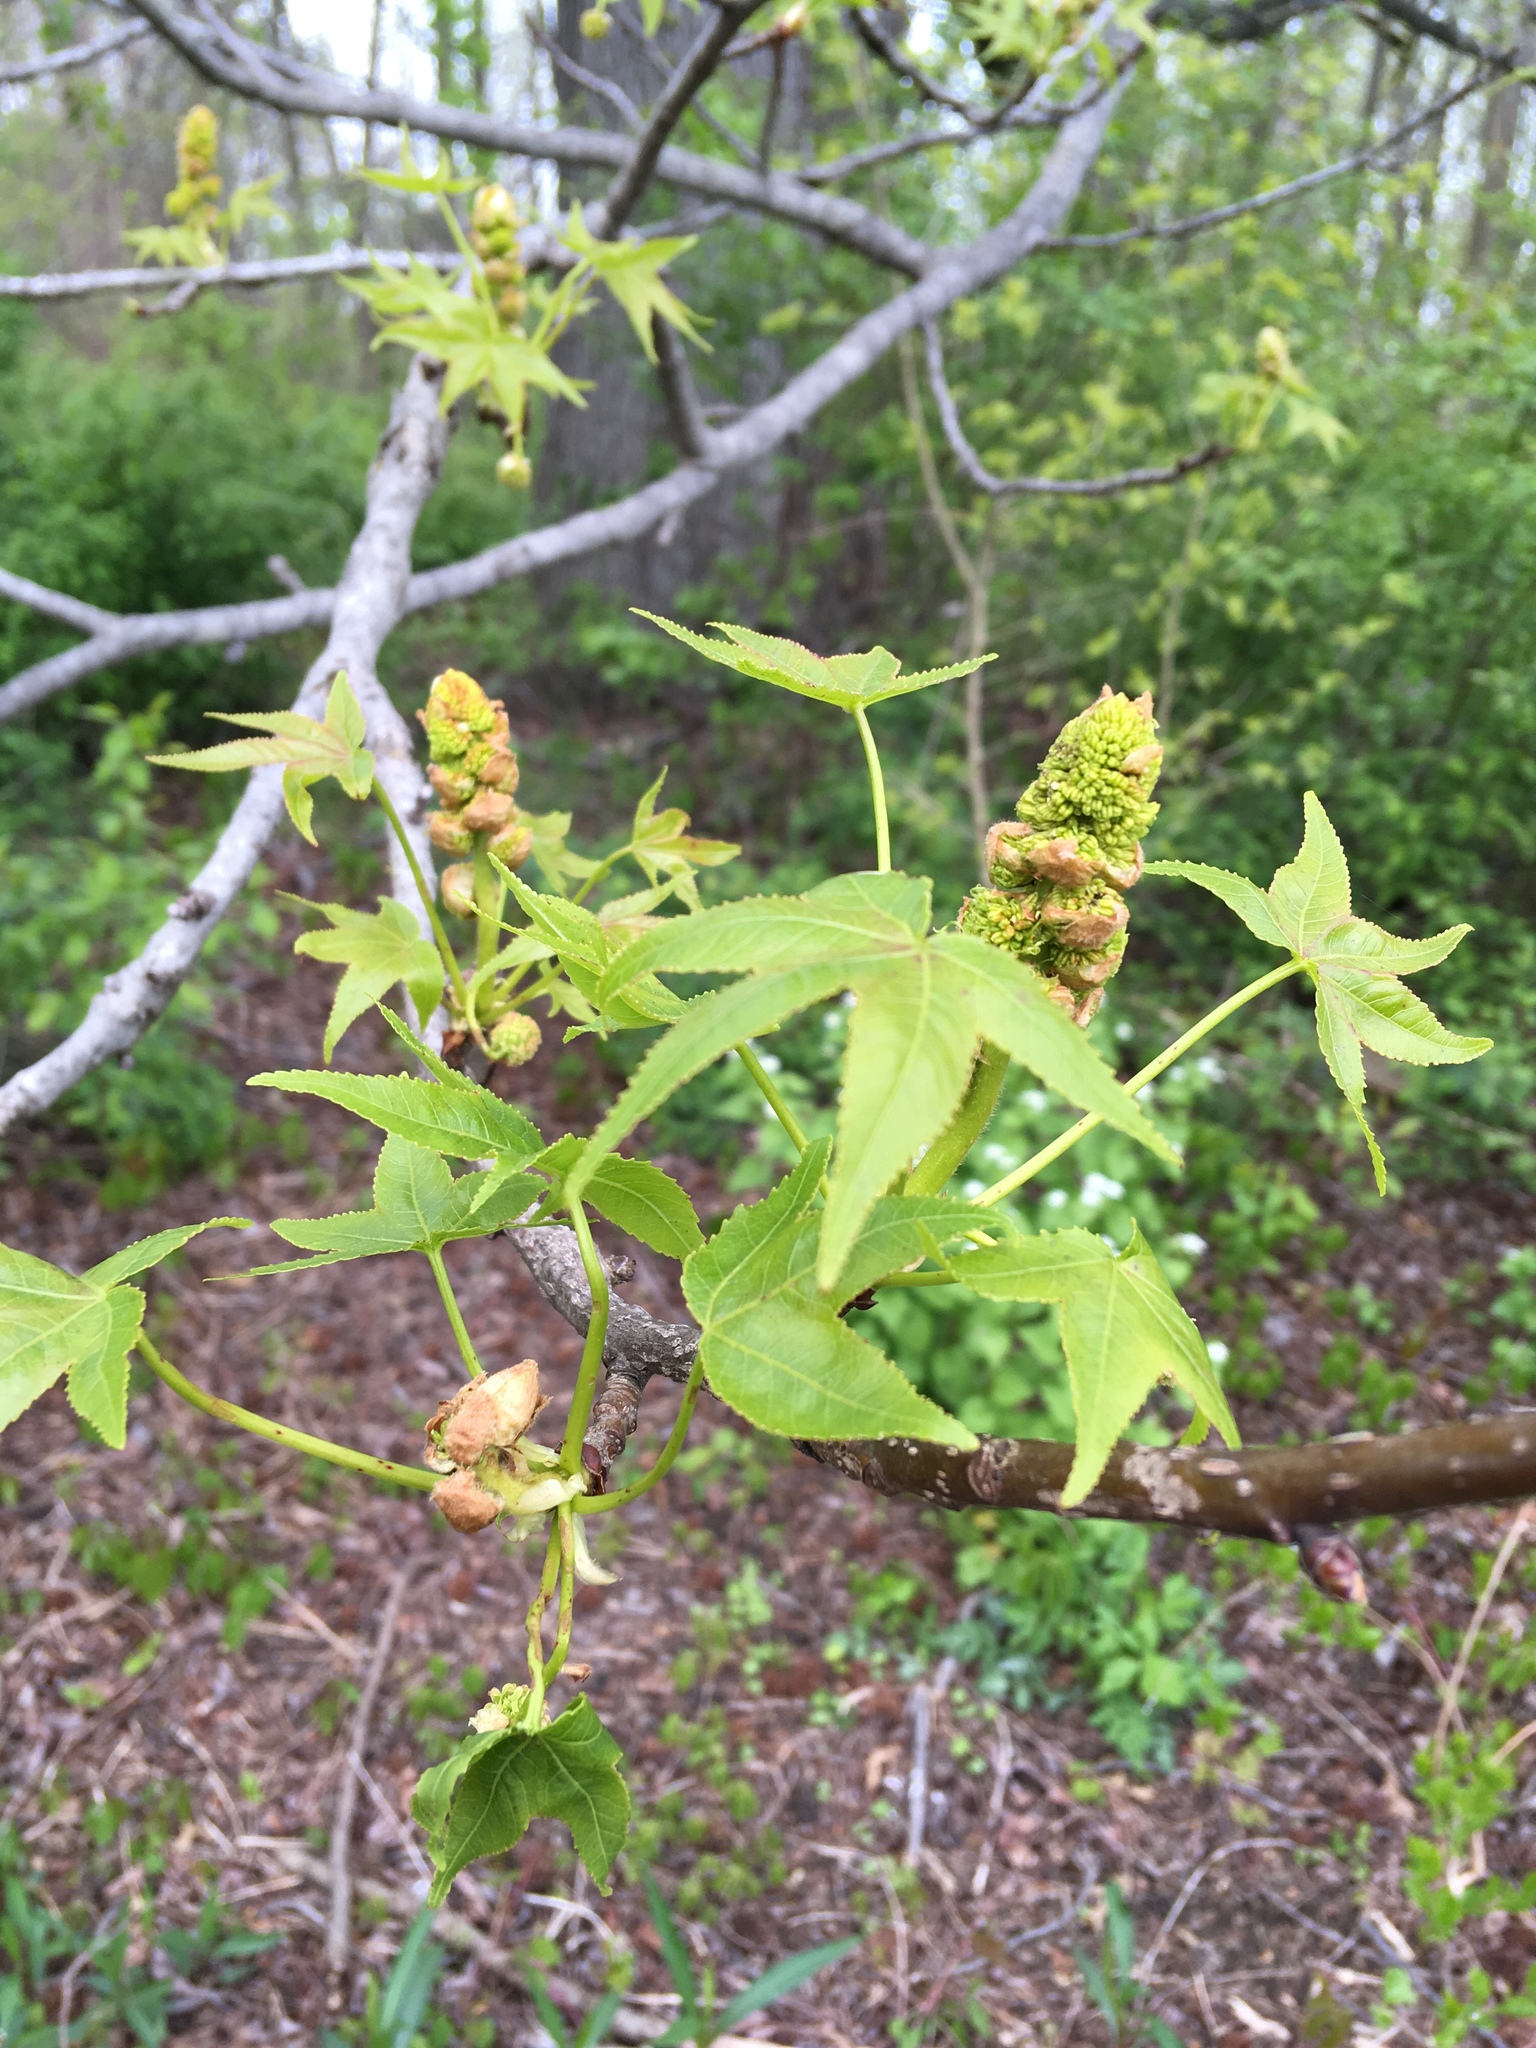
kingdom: Plantae
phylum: Tracheophyta
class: Magnoliopsida
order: Saxifragales
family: Altingiaceae
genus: Liquidambar
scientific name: Liquidambar styraciflua
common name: Sweet gum
